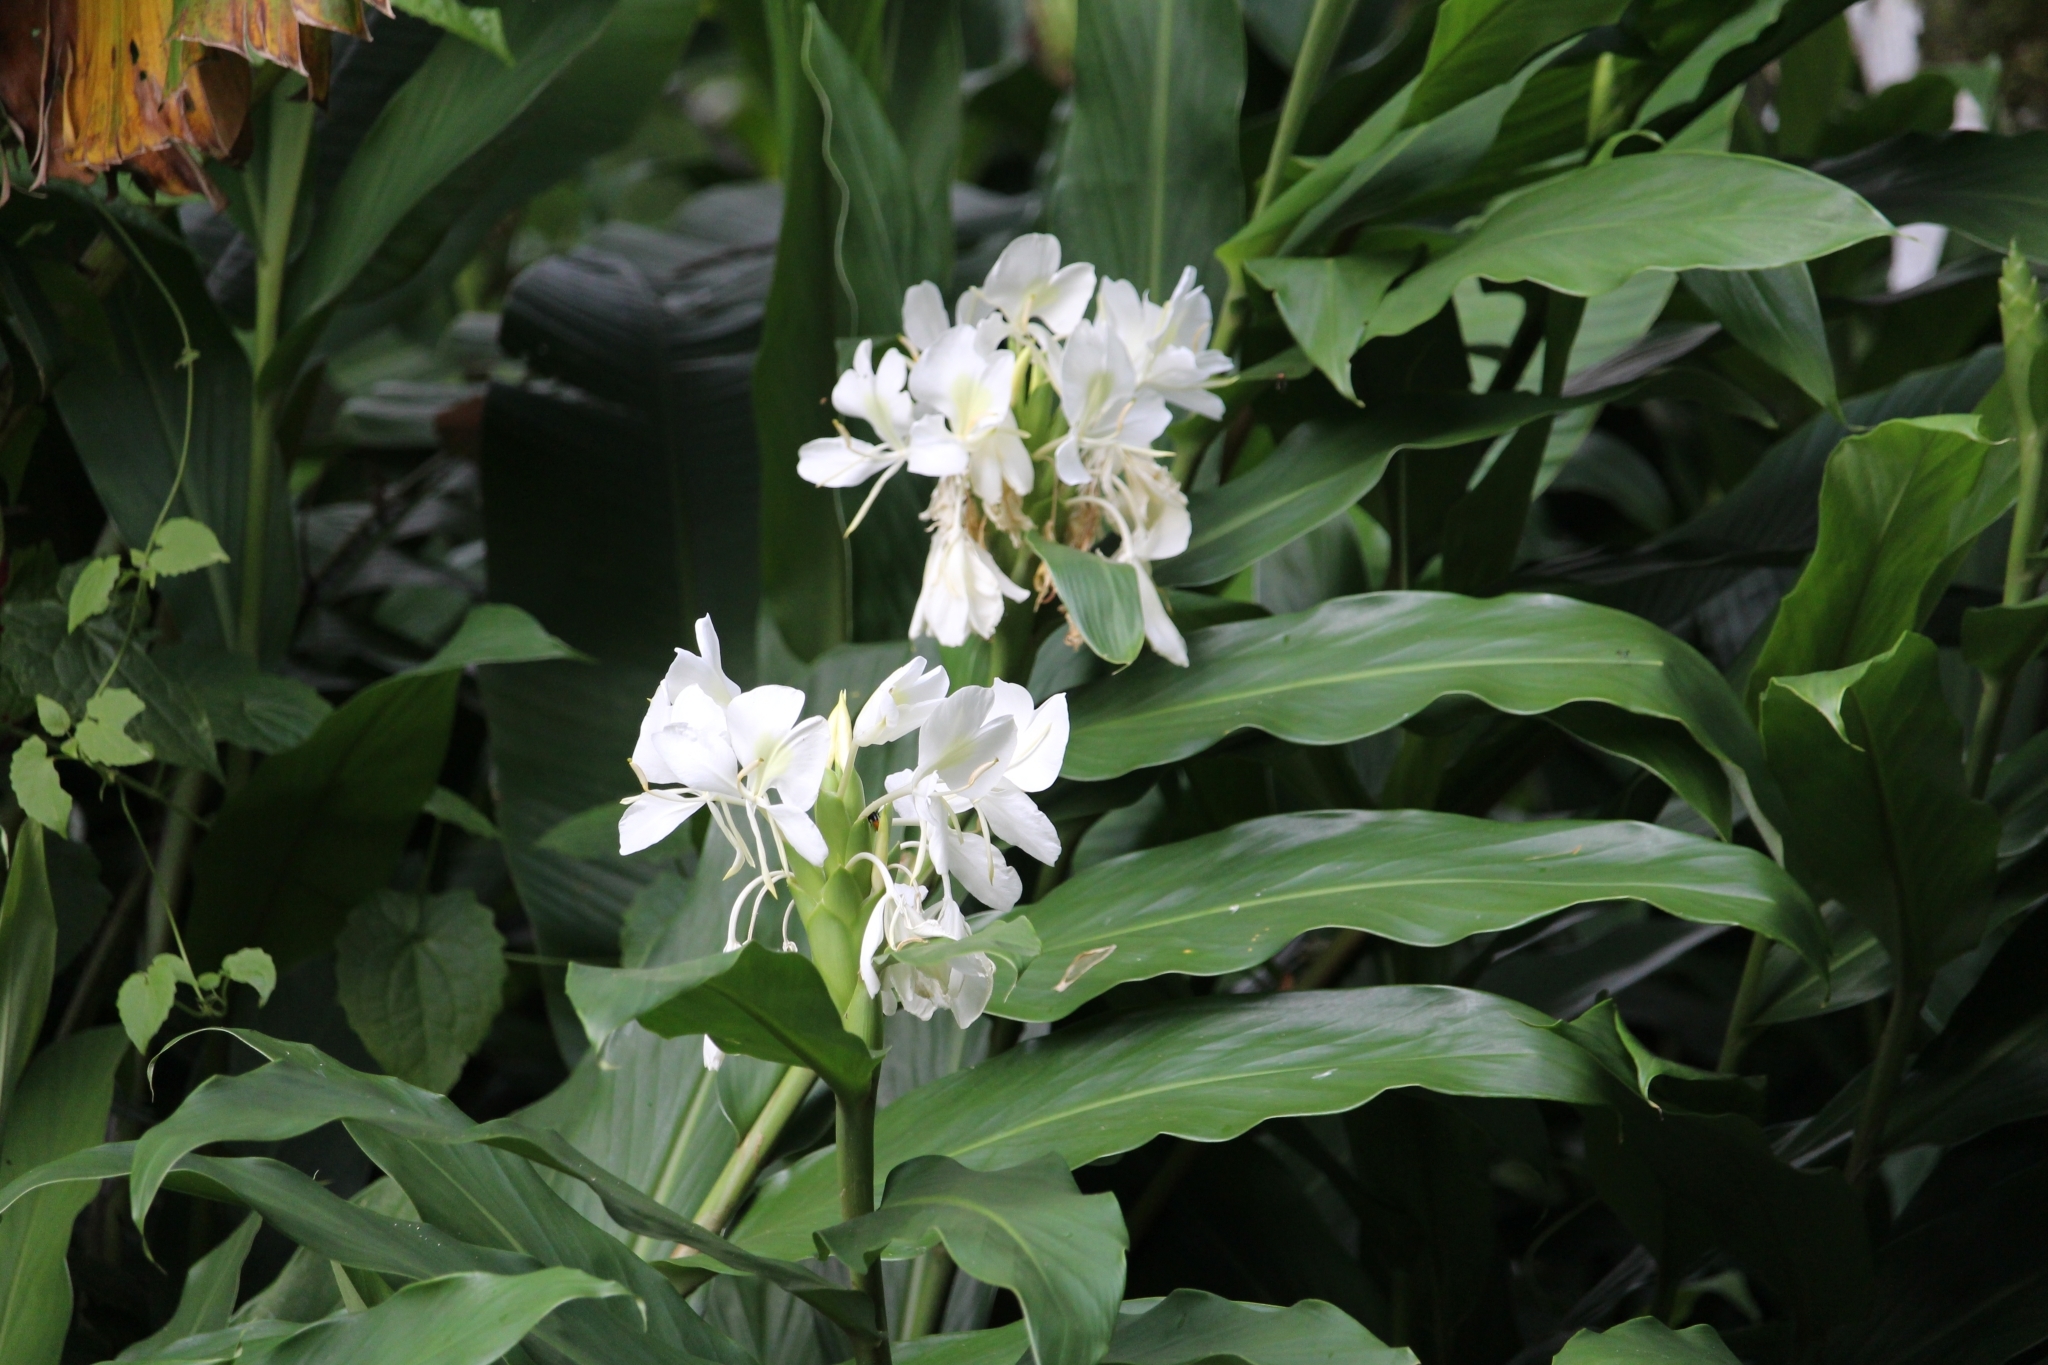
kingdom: Plantae
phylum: Tracheophyta
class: Liliopsida
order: Zingiberales
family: Zingiberaceae
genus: Hedychium
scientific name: Hedychium coronarium
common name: White garland-lily
